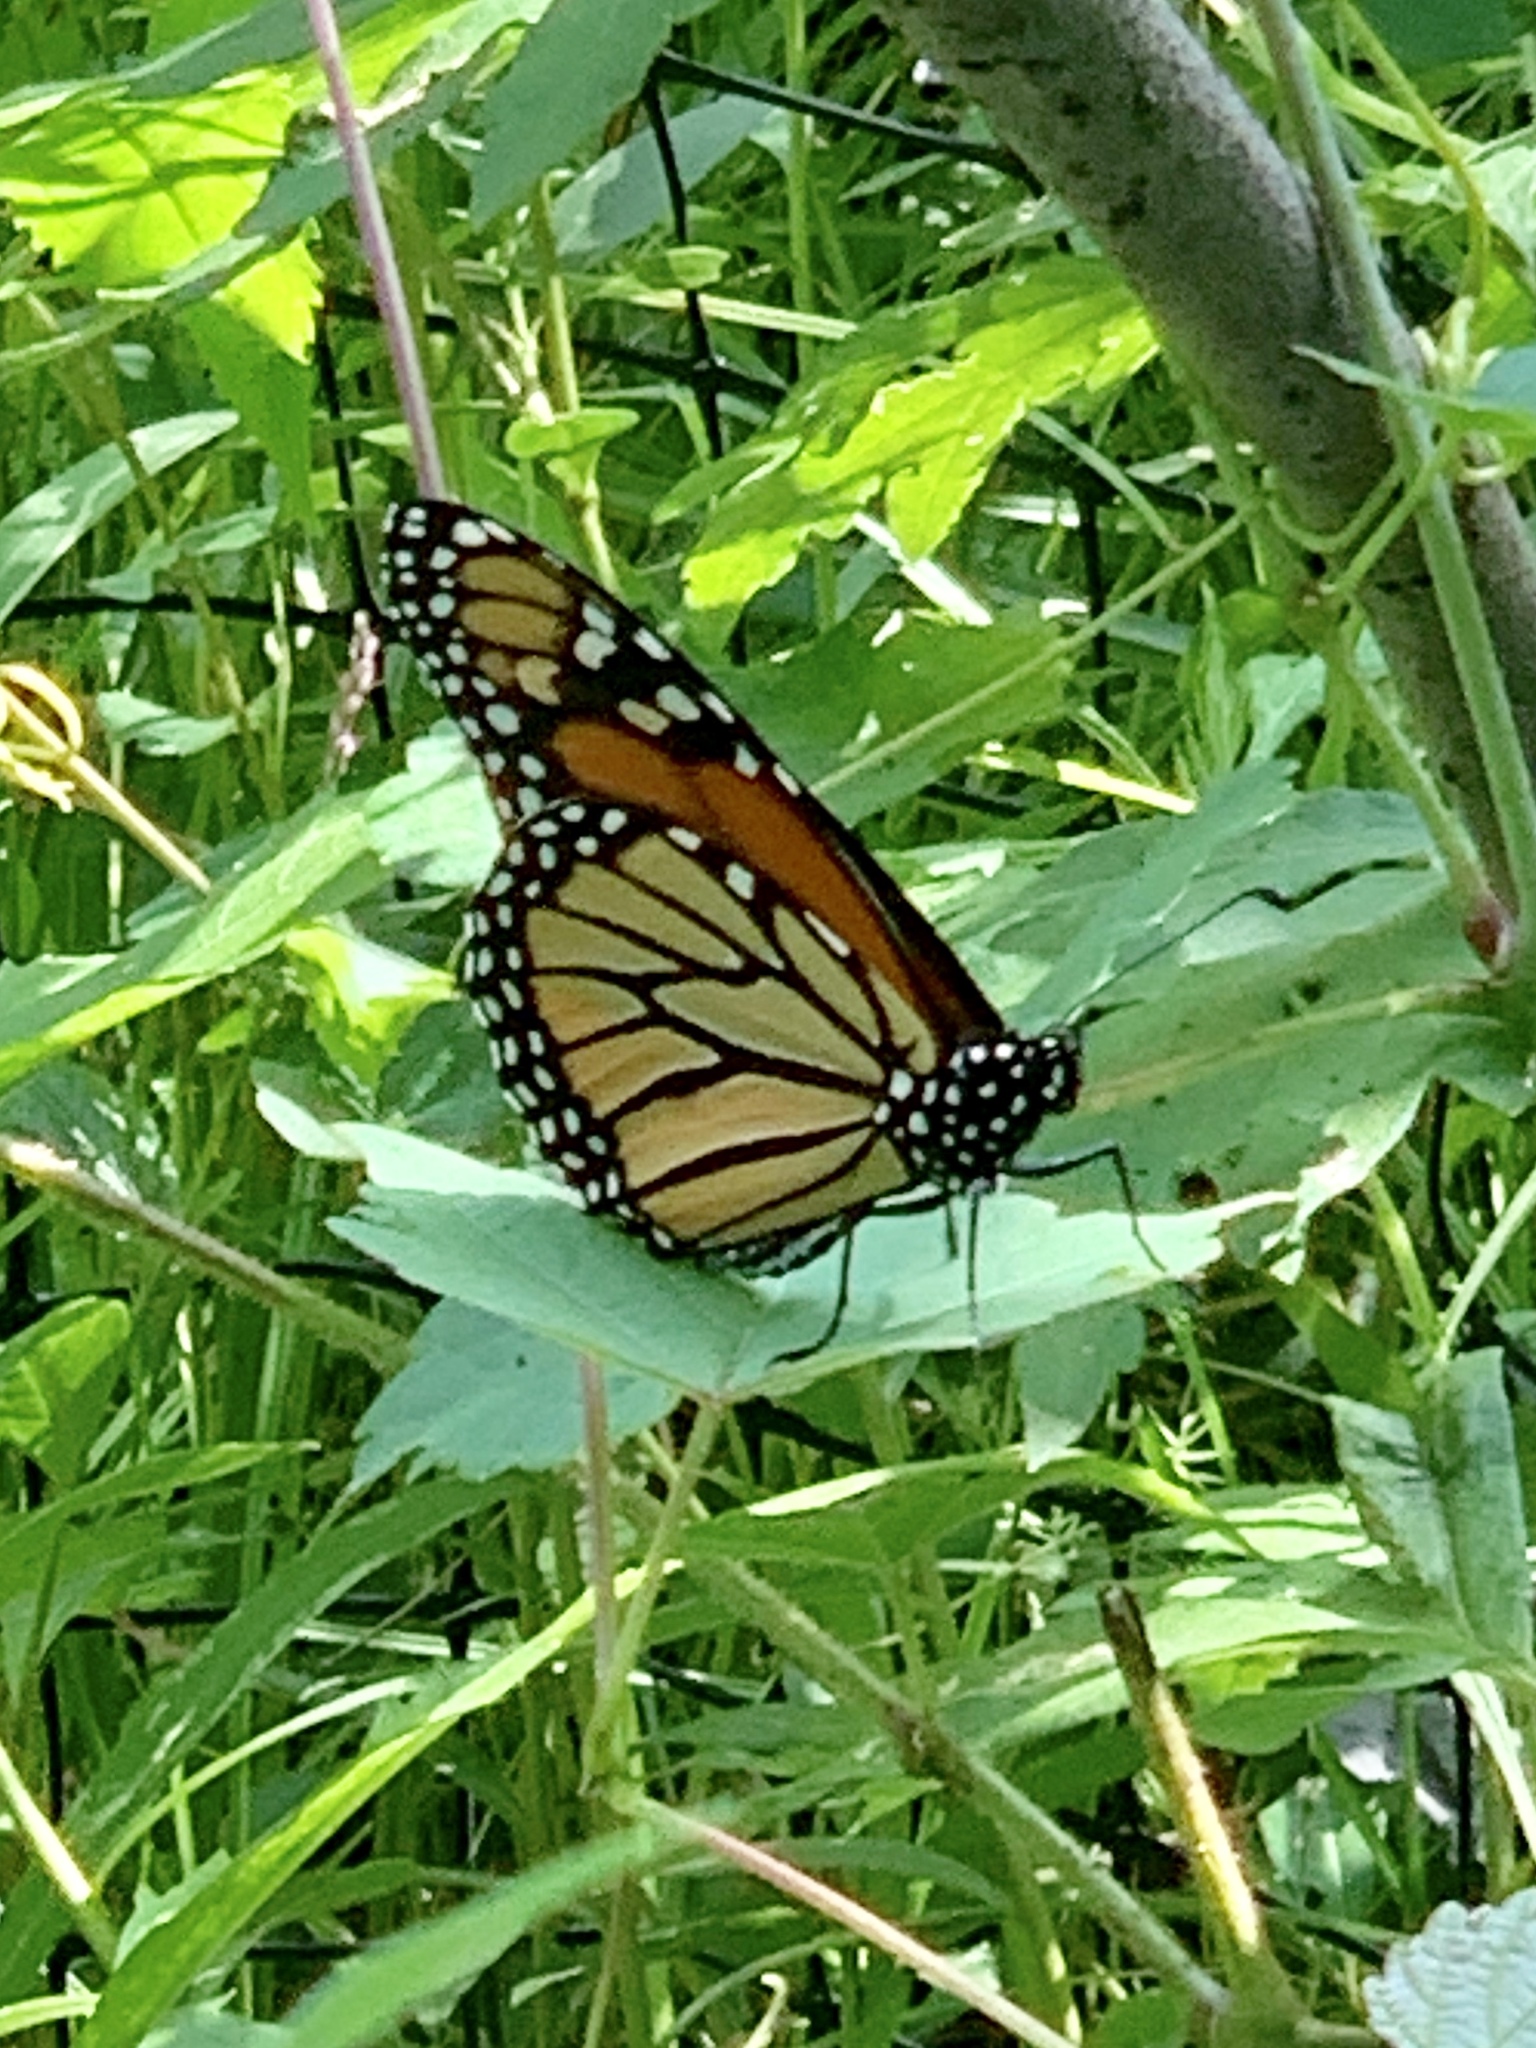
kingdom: Animalia
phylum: Arthropoda
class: Insecta
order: Lepidoptera
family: Nymphalidae
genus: Danaus
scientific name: Danaus plexippus
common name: Monarch
